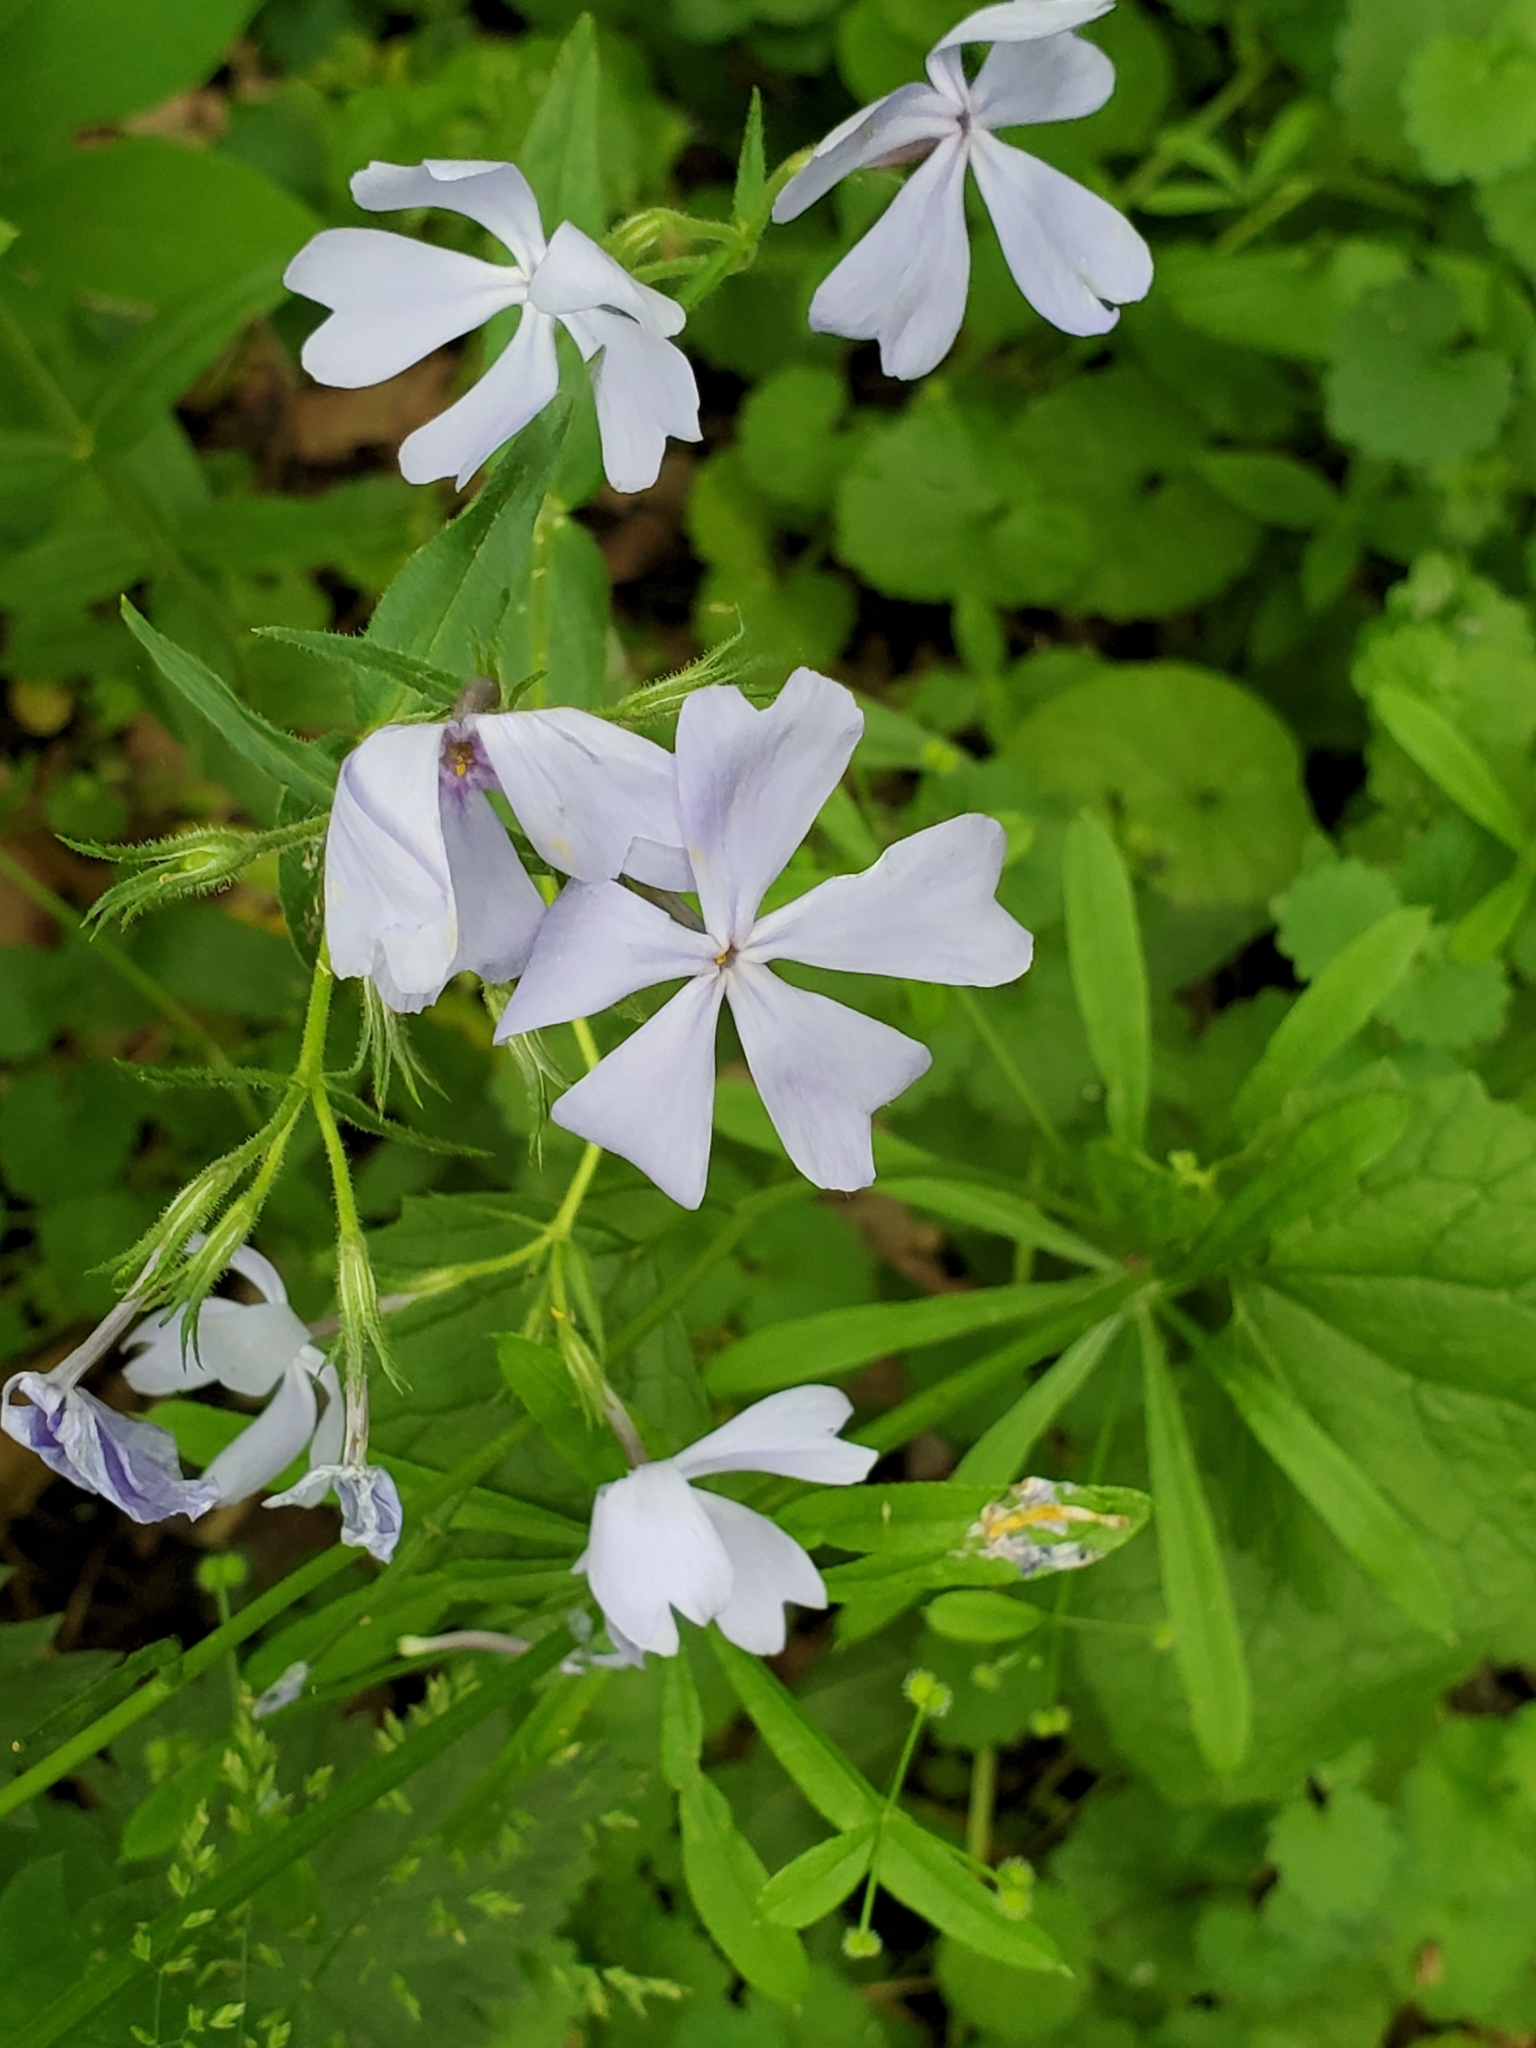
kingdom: Plantae
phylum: Tracheophyta
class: Magnoliopsida
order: Ericales
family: Polemoniaceae
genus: Phlox
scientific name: Phlox divaricata
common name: Blue phlox
